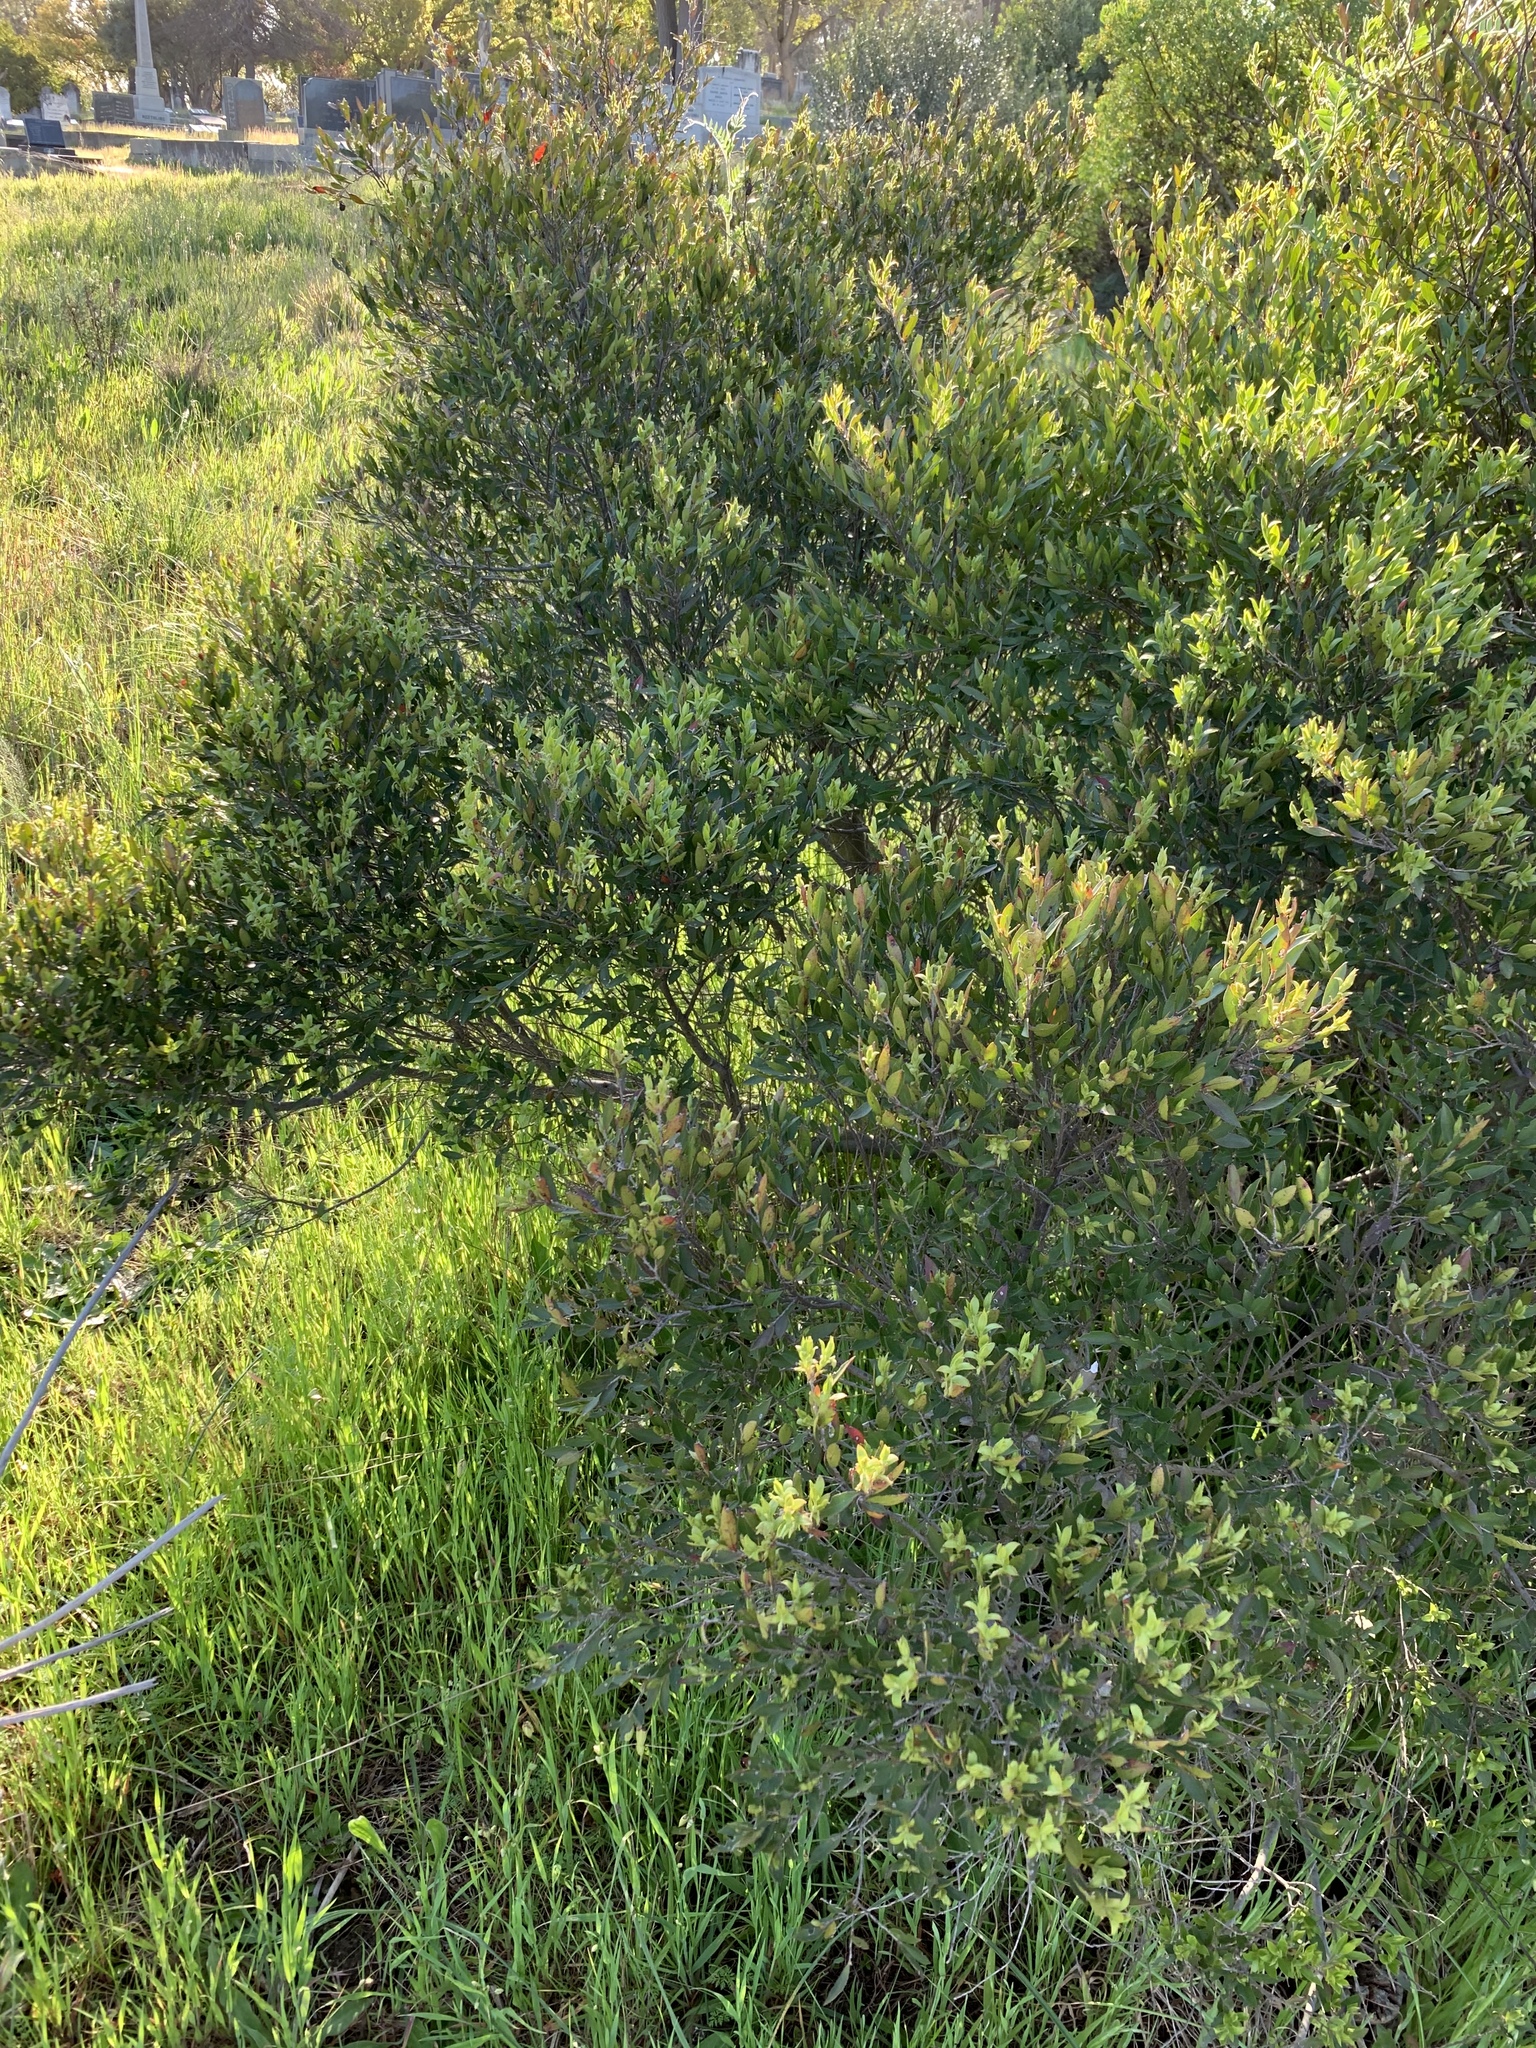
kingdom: Plantae
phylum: Tracheophyta
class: Magnoliopsida
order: Ericales
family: Ebenaceae
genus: Diospyros
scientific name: Diospyros glabra
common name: Fynbos star apple
